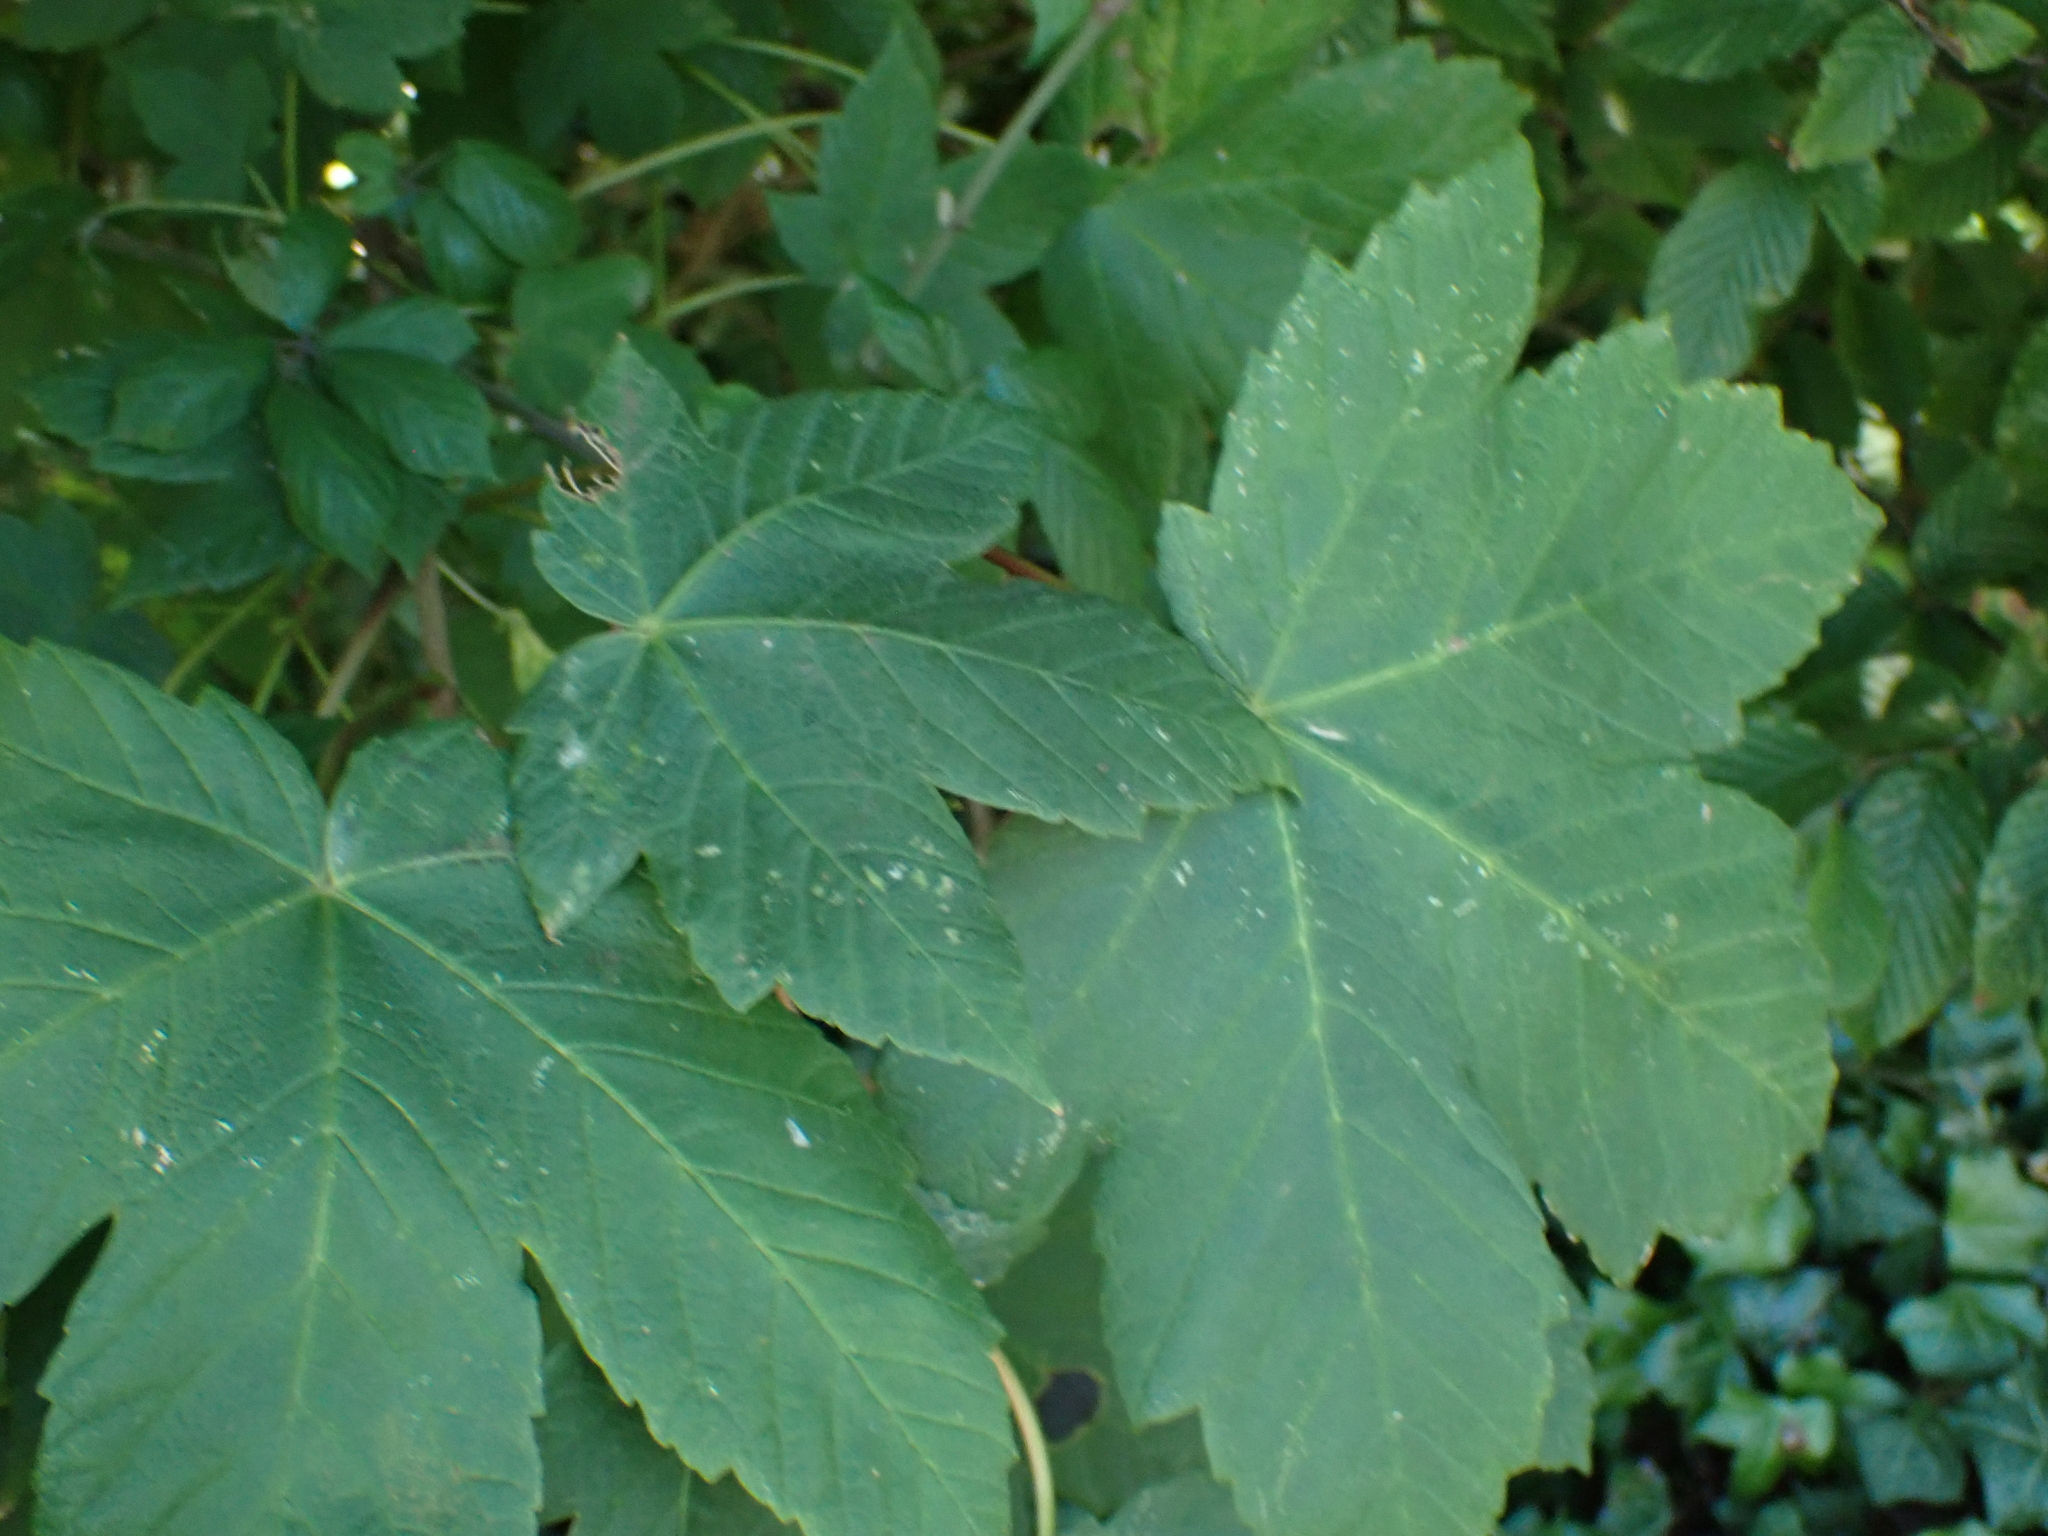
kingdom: Plantae
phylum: Tracheophyta
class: Magnoliopsida
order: Sapindales
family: Sapindaceae
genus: Acer
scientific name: Acer pseudoplatanus
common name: Sycamore
